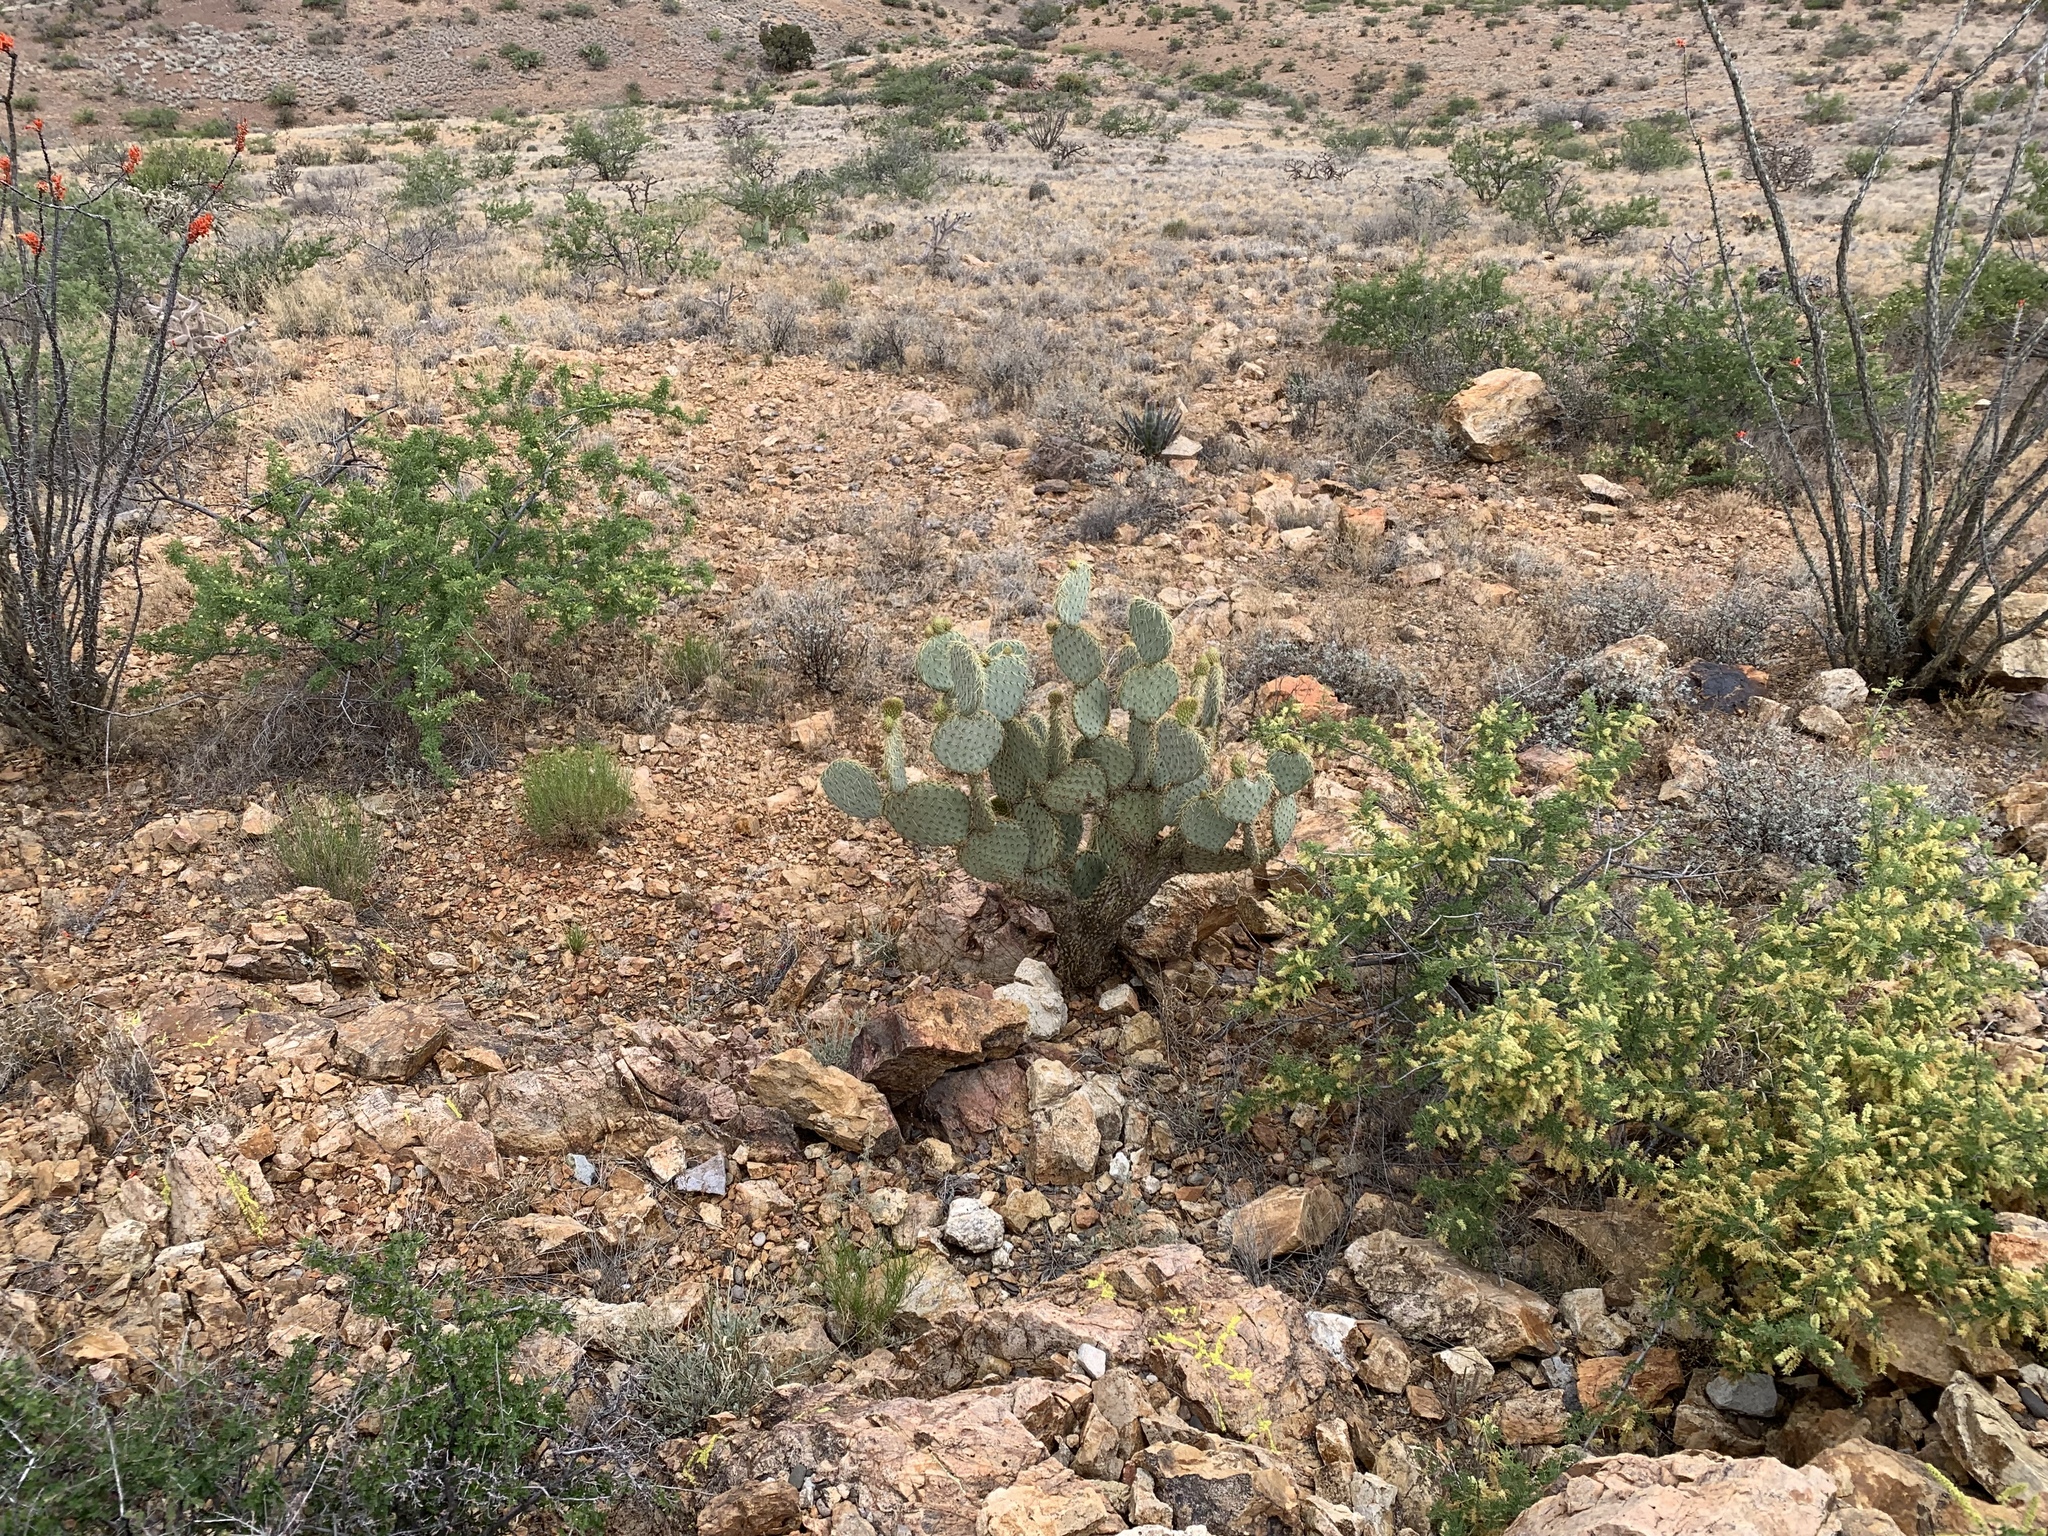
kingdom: Plantae
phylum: Tracheophyta
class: Magnoliopsida
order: Caryophyllales
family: Cactaceae
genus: Opuntia
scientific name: Opuntia chlorotica
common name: Dollar-joint prickly-pear
